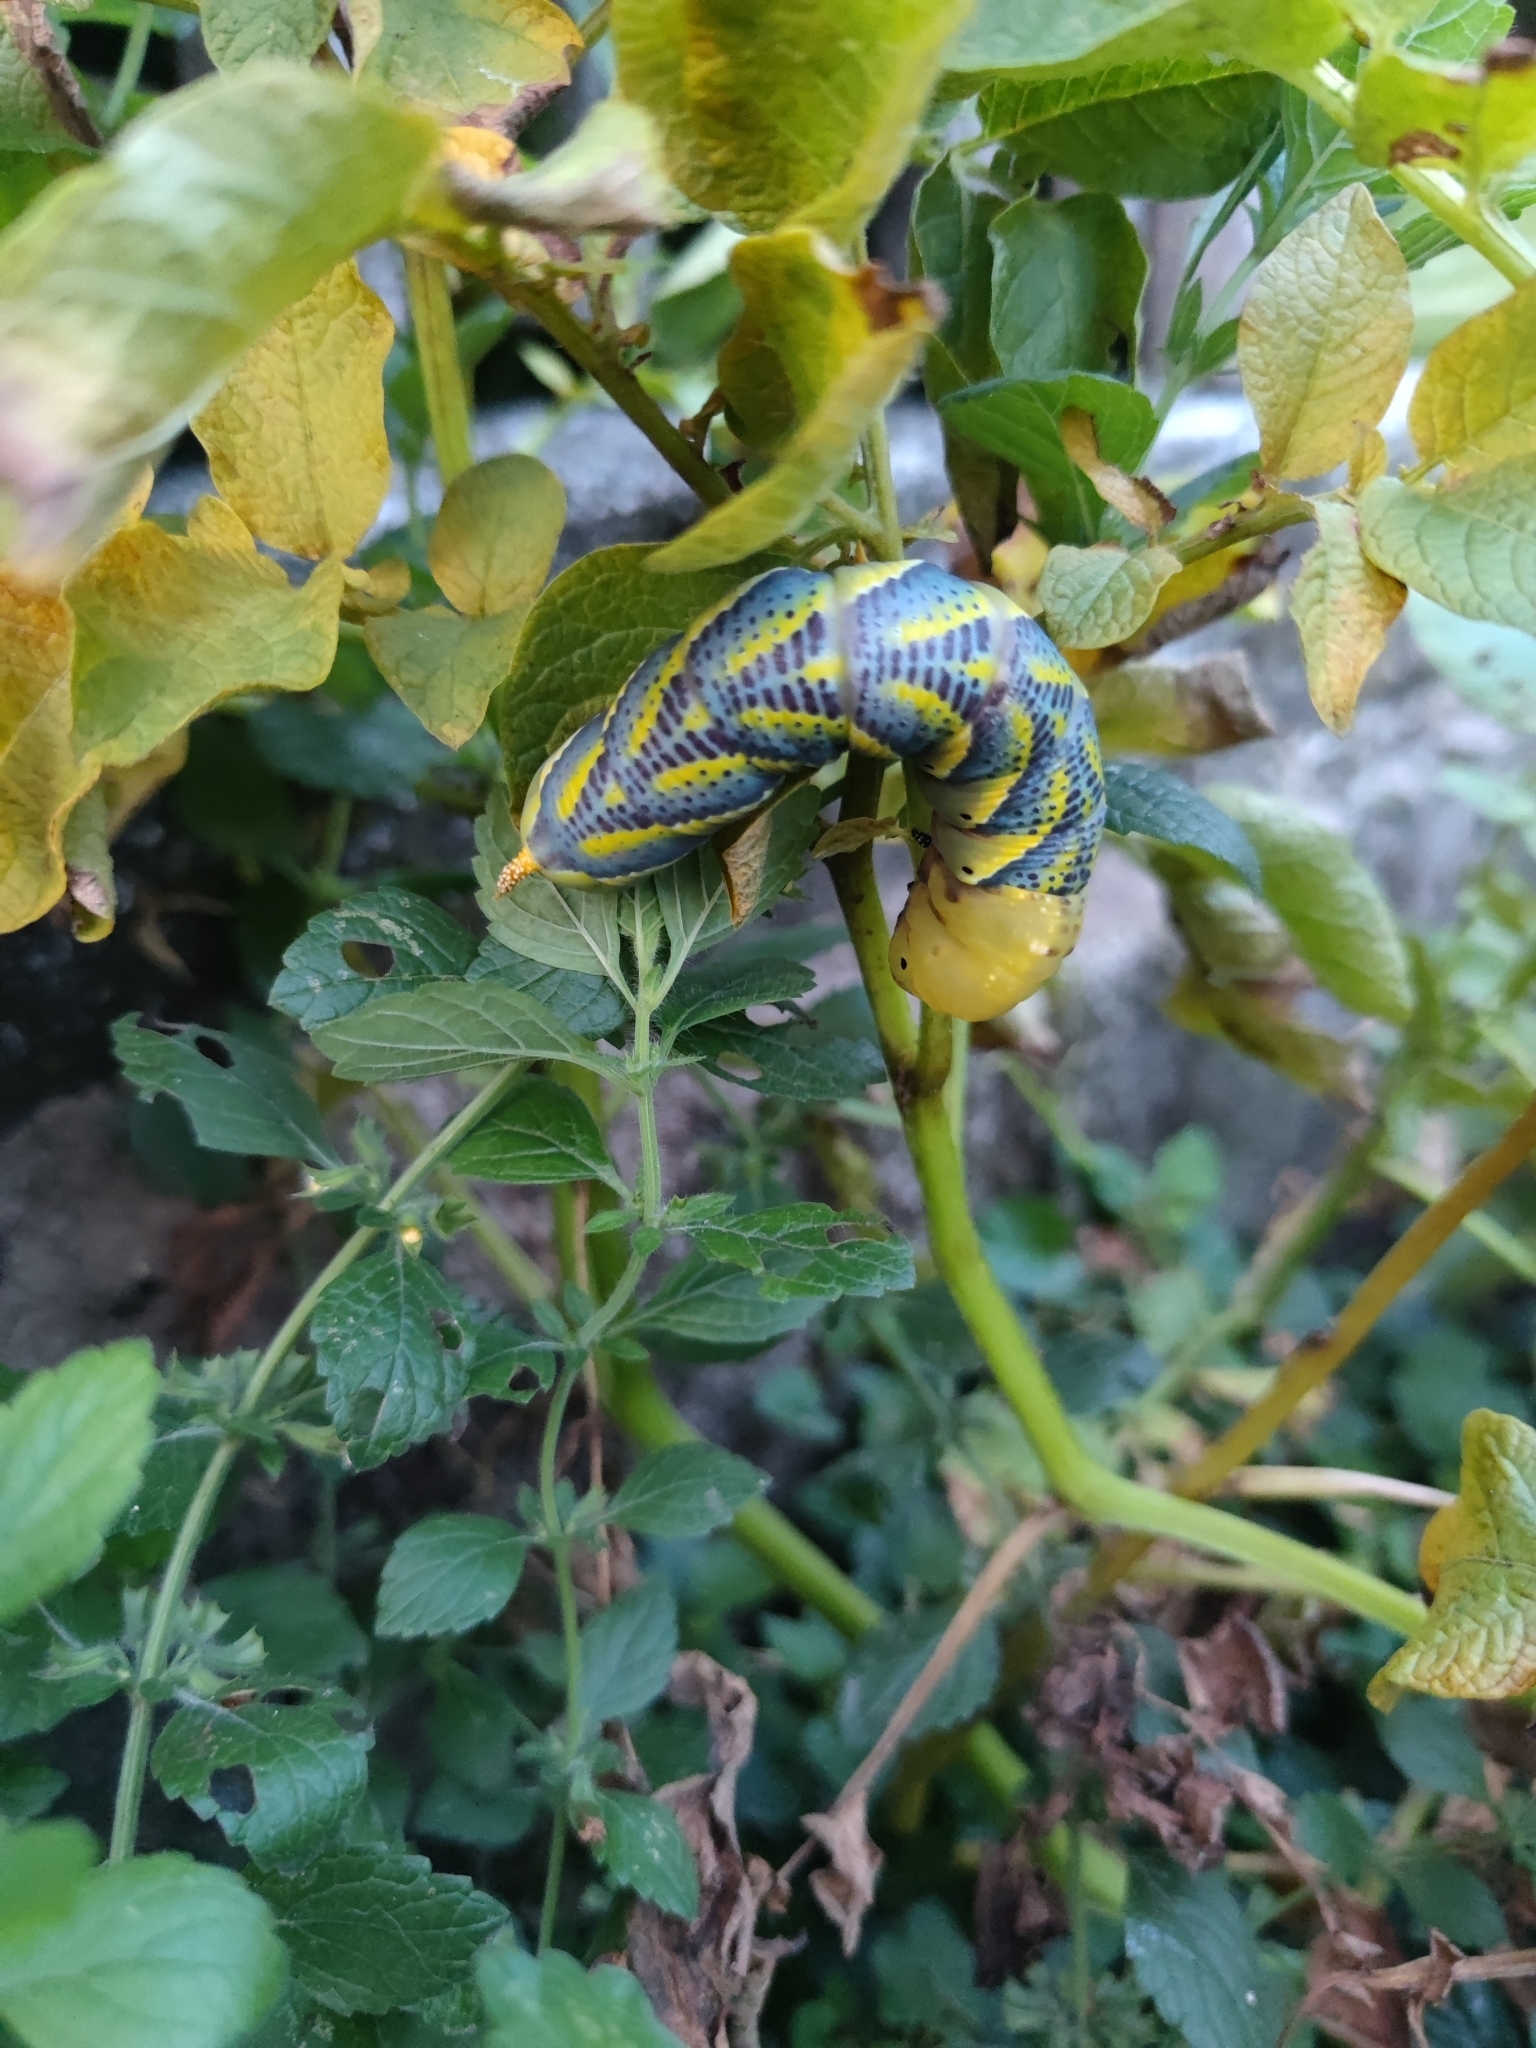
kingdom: Animalia
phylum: Arthropoda
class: Insecta
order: Lepidoptera
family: Sphingidae
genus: Acherontia
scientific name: Acherontia atropos
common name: Death's-head hawk moth
